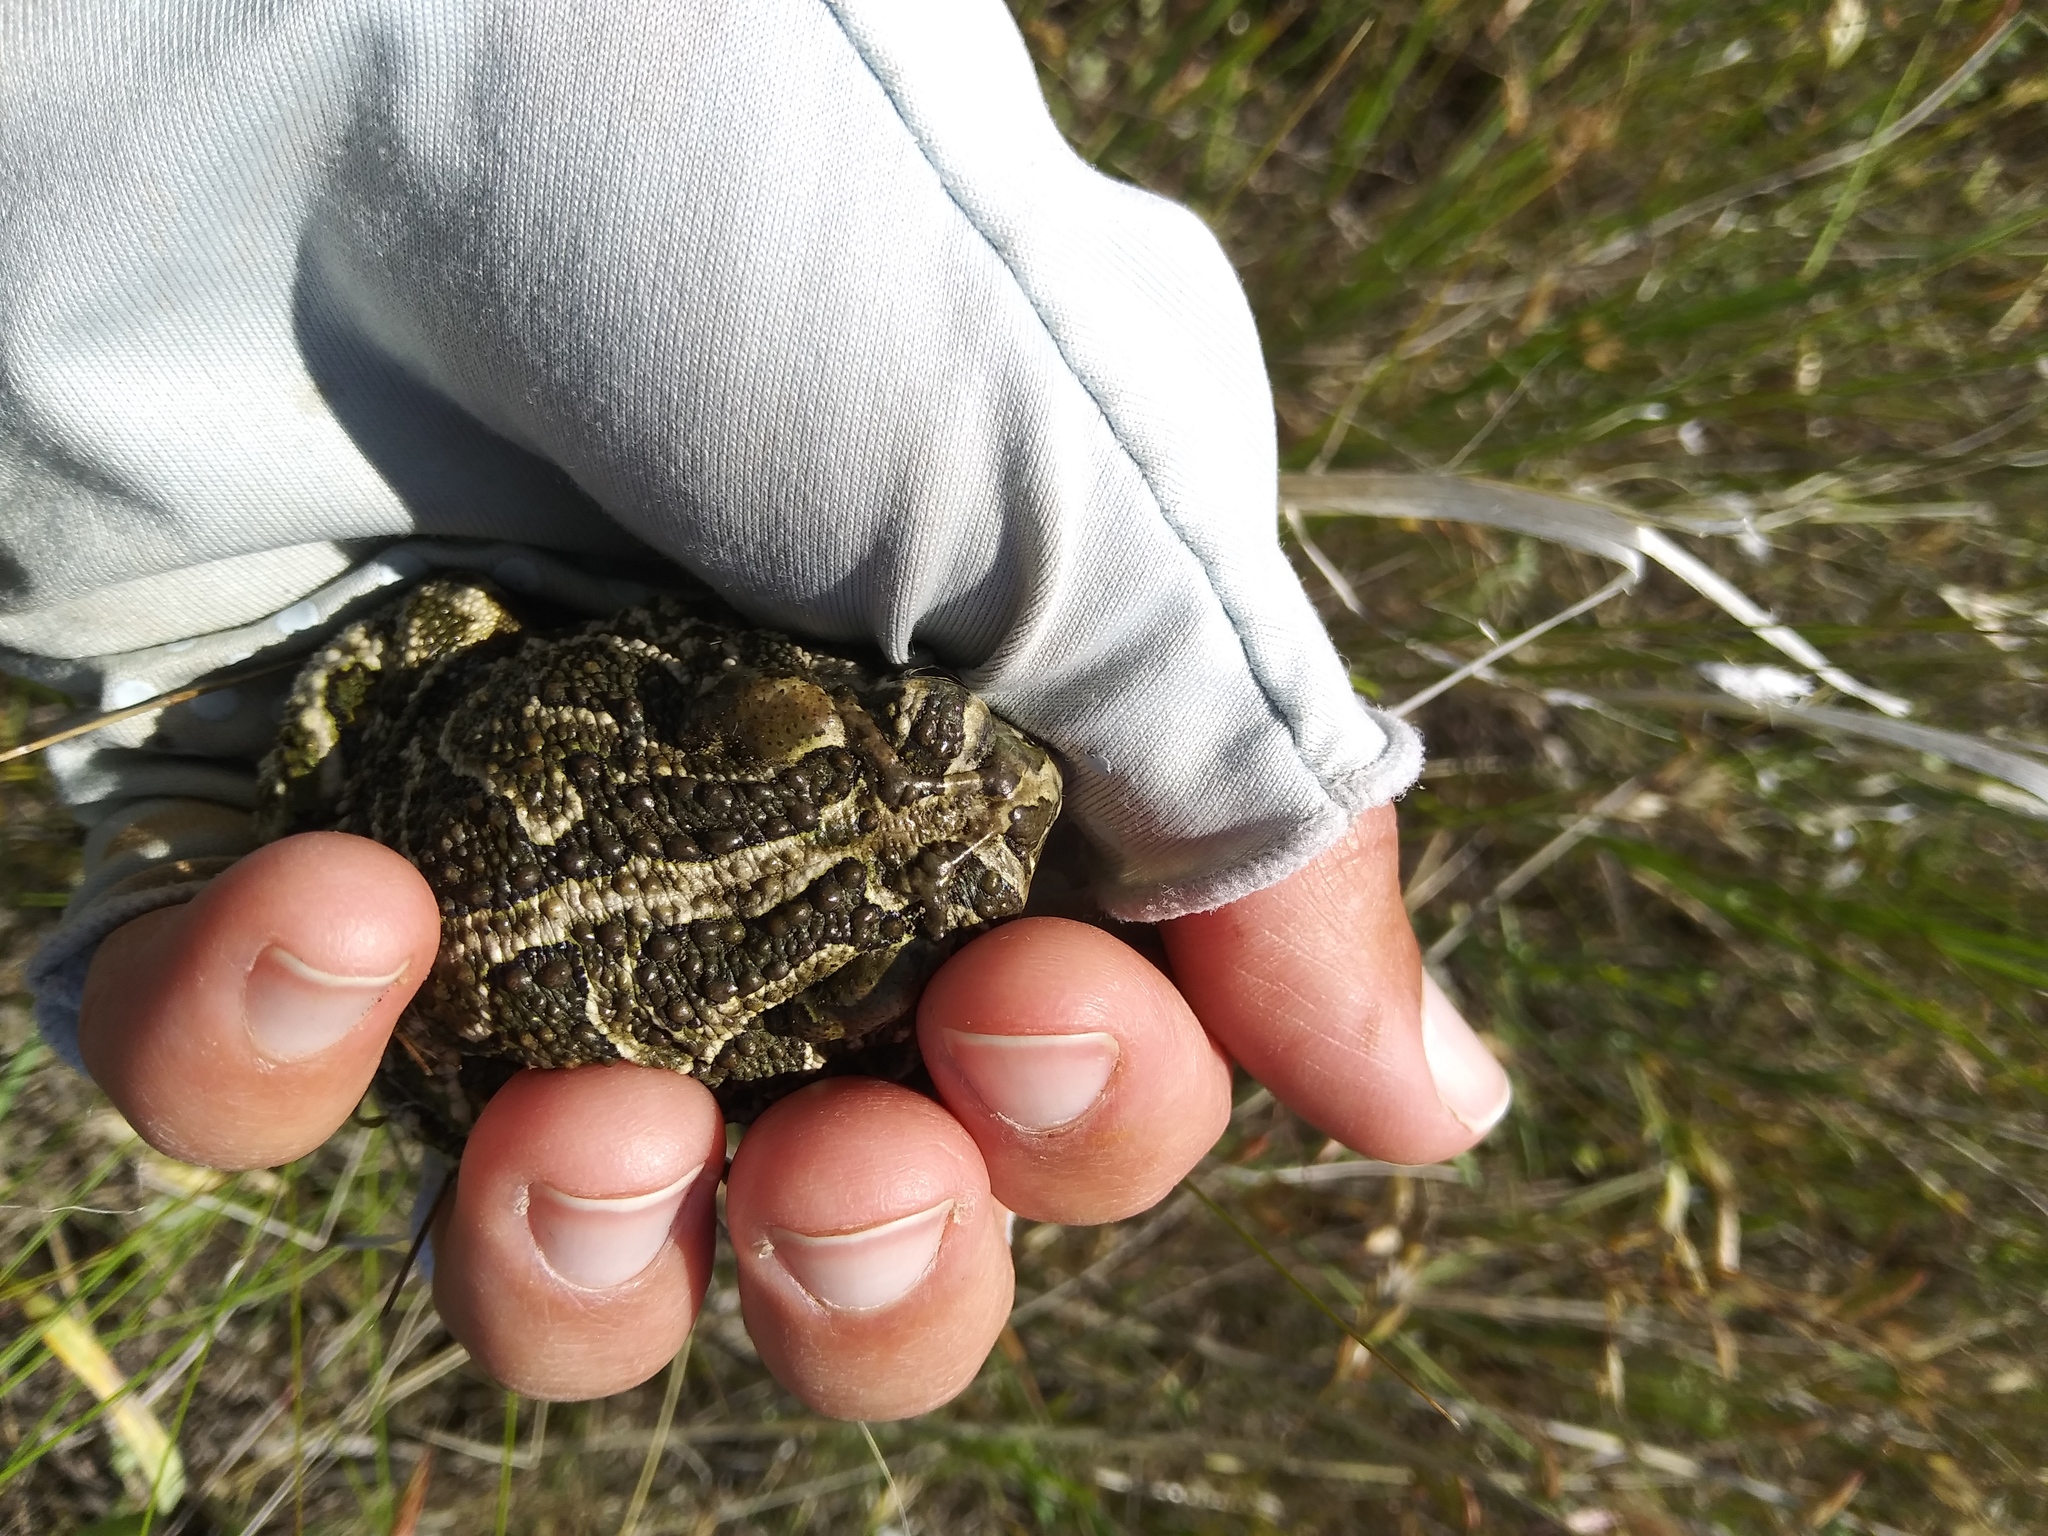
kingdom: Animalia
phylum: Chordata
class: Amphibia
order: Anura
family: Bufonidae
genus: Anaxyrus
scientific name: Anaxyrus cognatus
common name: Great plains toad
